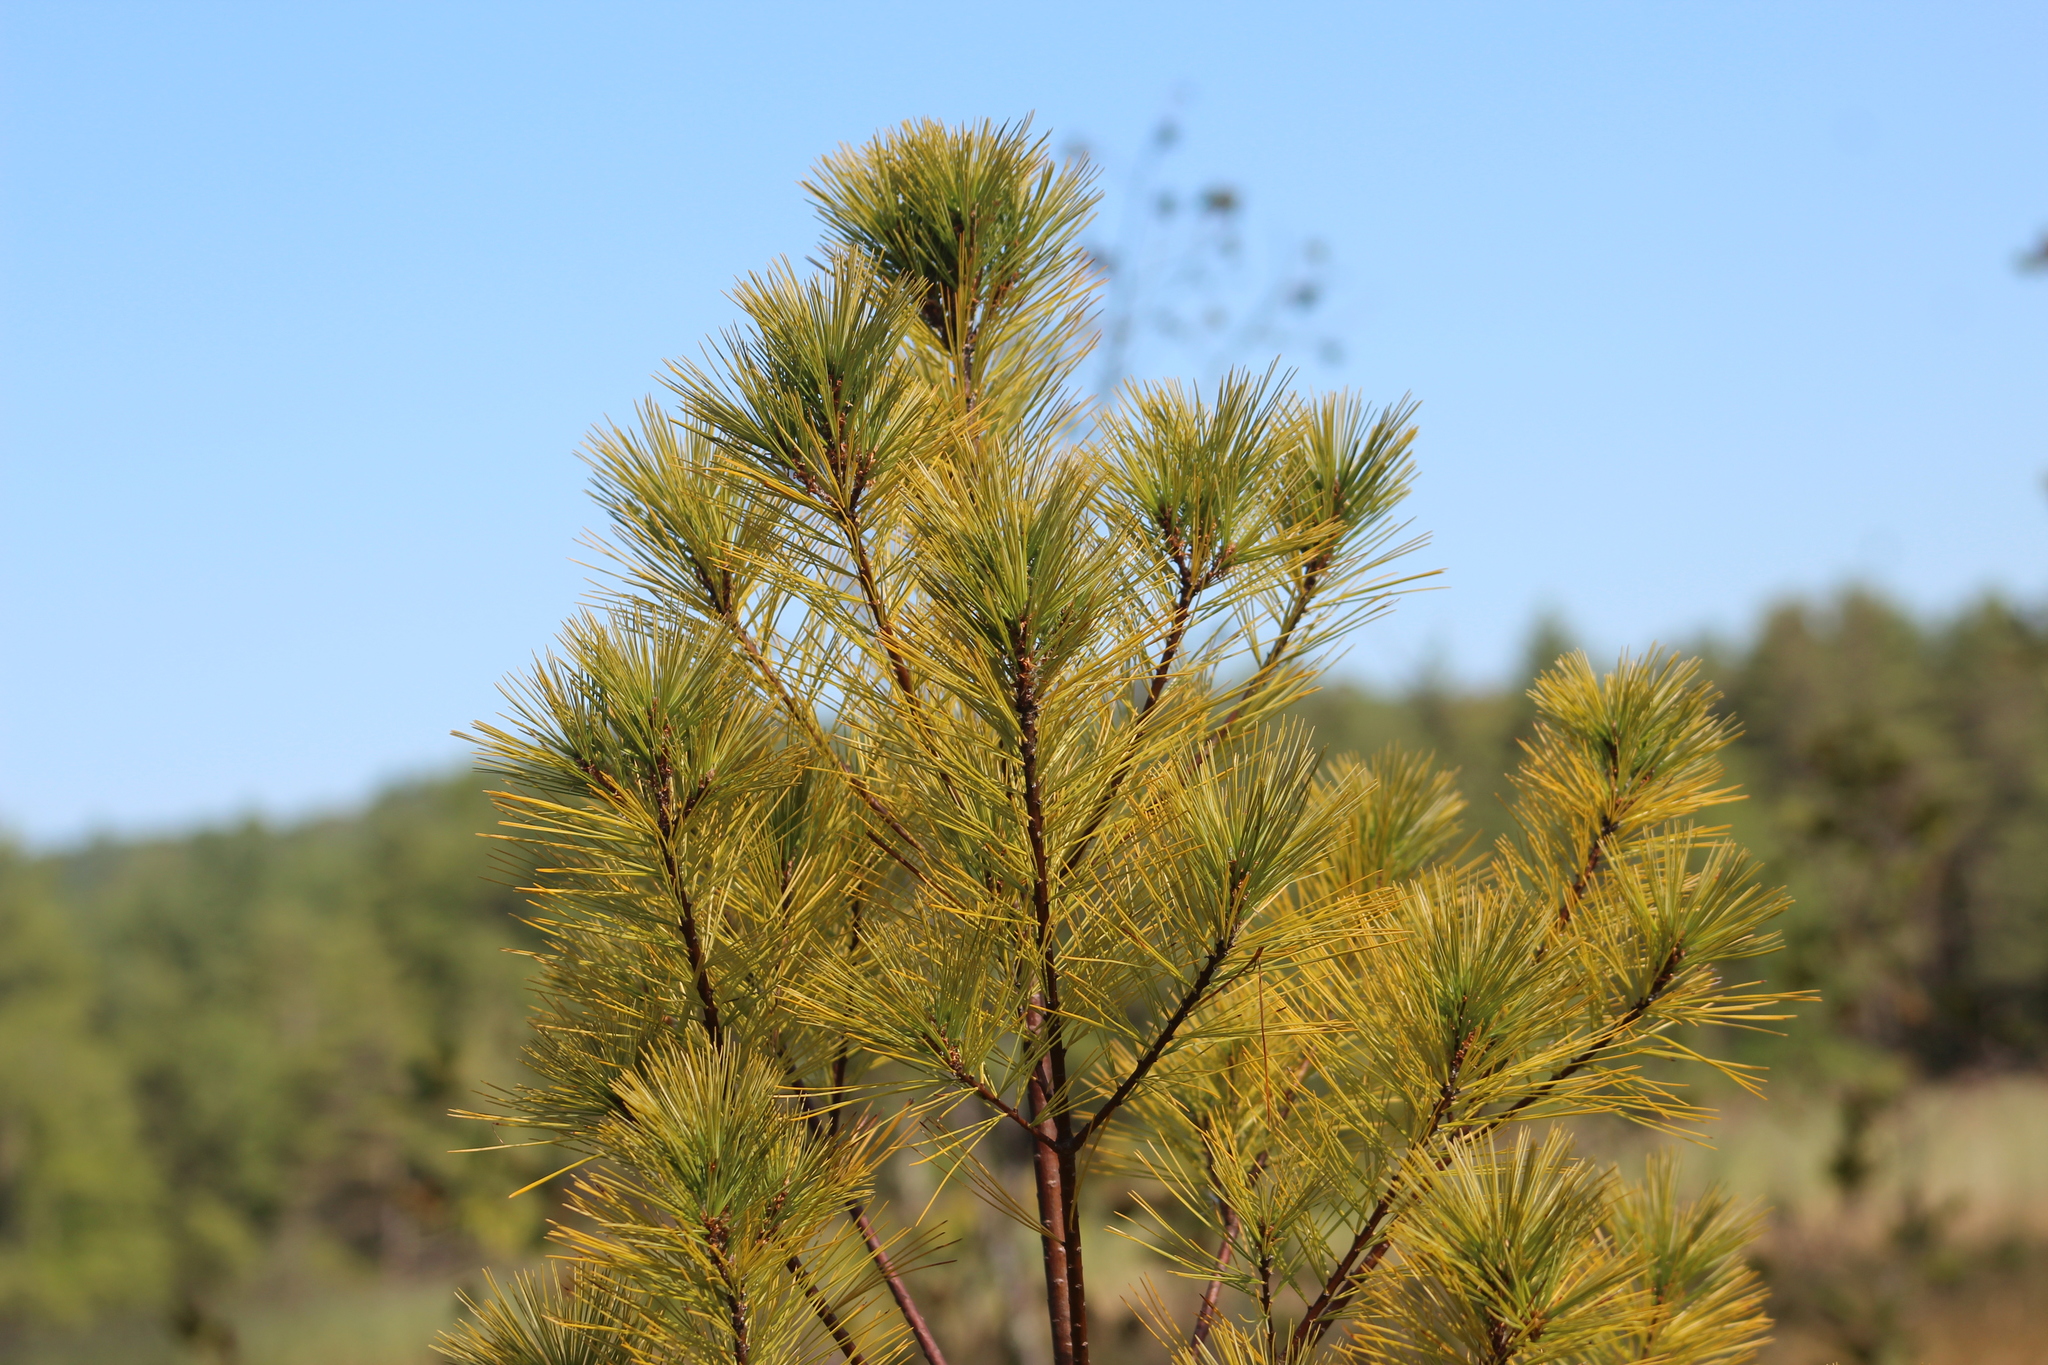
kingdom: Plantae
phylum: Tracheophyta
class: Pinopsida
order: Pinales
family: Pinaceae
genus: Pinus
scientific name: Pinus strobus
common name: Weymouth pine
